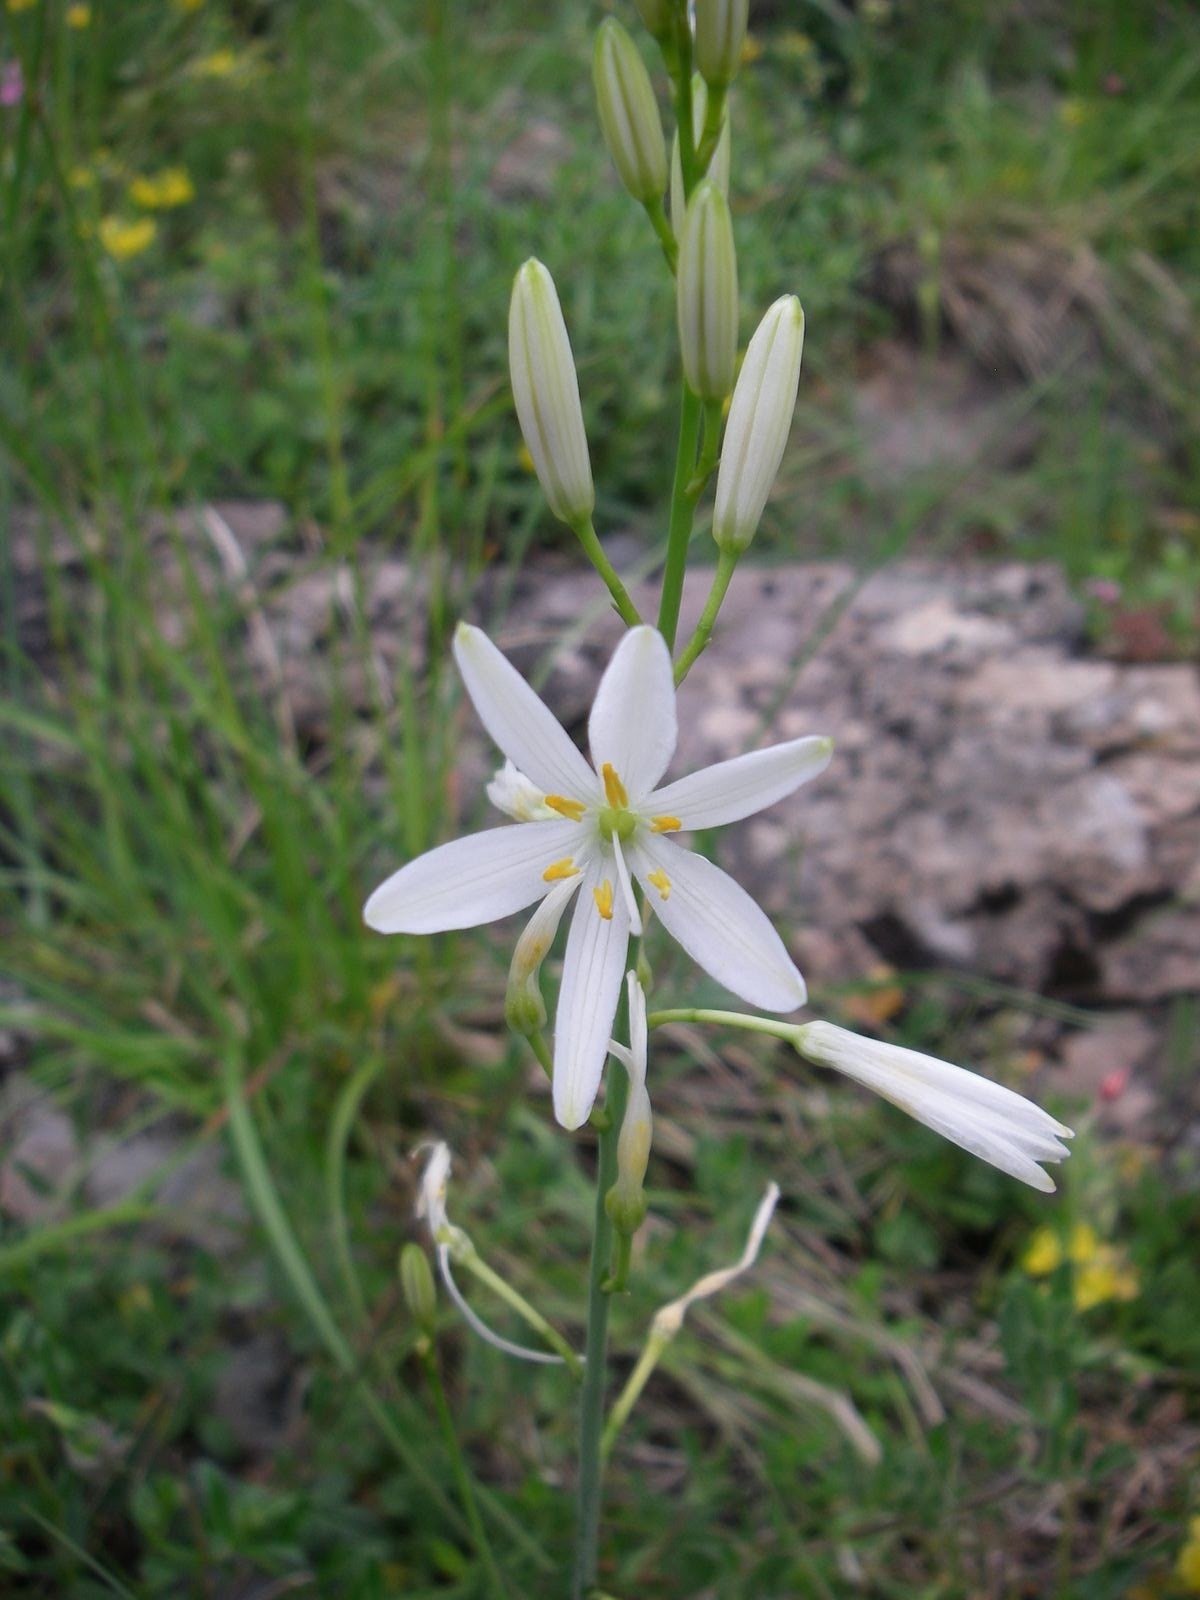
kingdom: Plantae
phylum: Tracheophyta
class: Liliopsida
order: Asparagales
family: Asparagaceae
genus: Anthericum
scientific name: Anthericum ramosum
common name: Branched st. bernard's-lily
